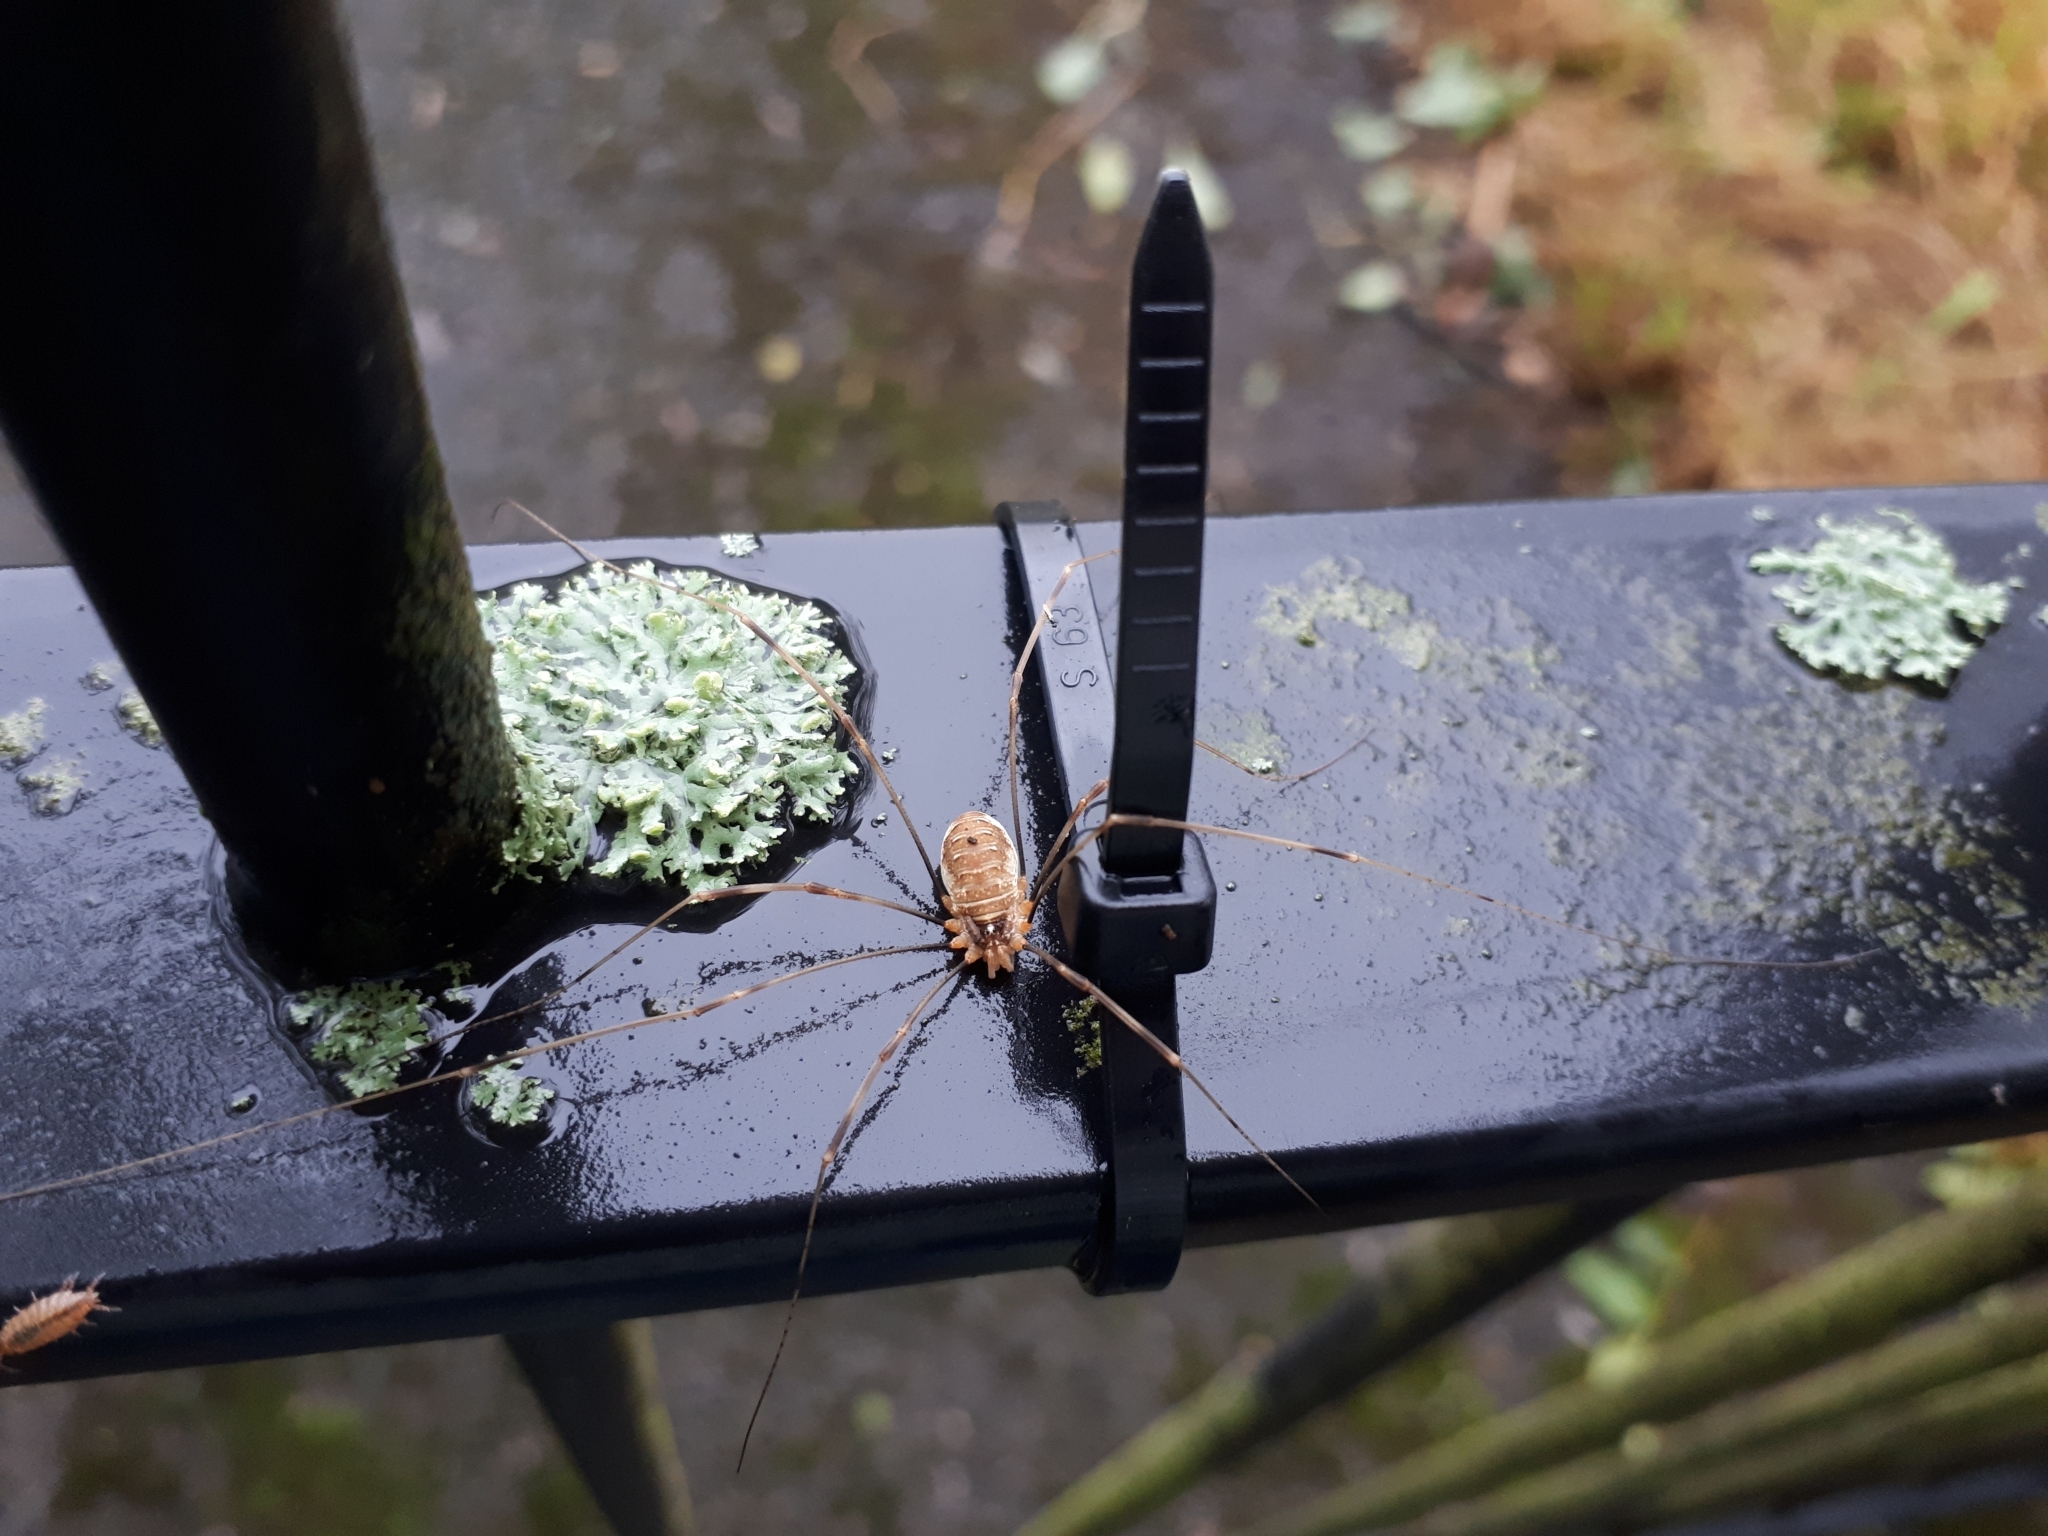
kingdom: Animalia
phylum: Arthropoda
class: Arachnida
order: Opiliones
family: Phalangiidae
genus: Opilio
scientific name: Opilio canestrinii
